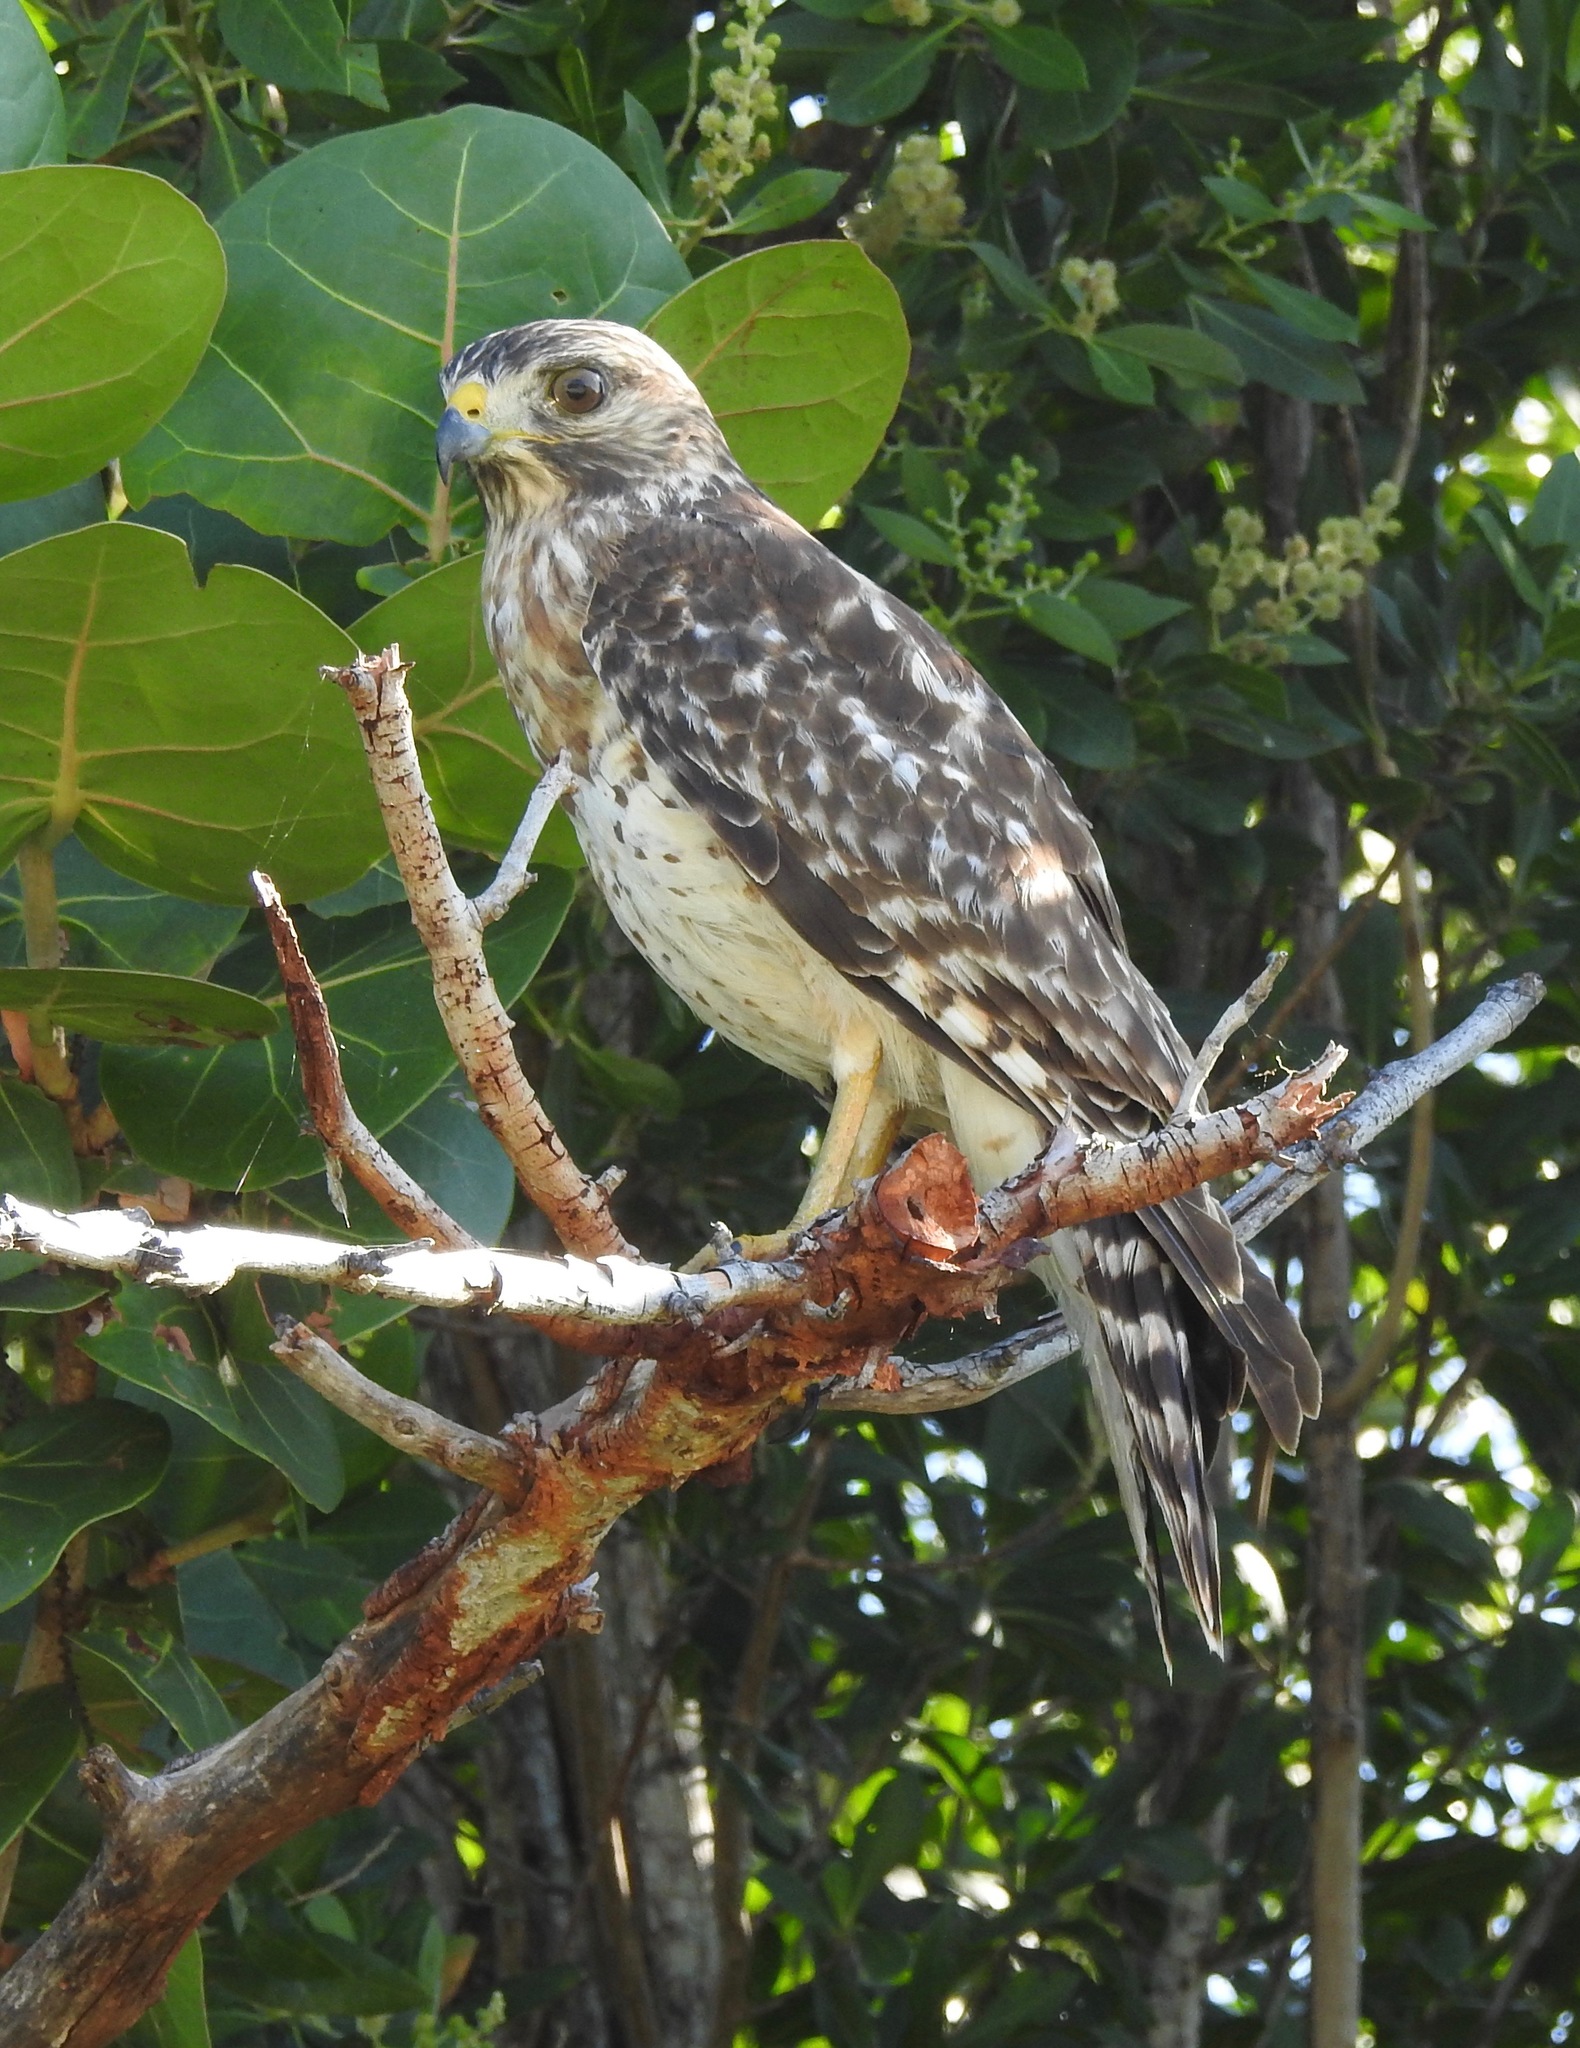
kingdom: Animalia
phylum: Chordata
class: Aves
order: Accipitriformes
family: Accipitridae
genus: Buteo
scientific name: Buteo lineatus
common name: Red-shouldered hawk
